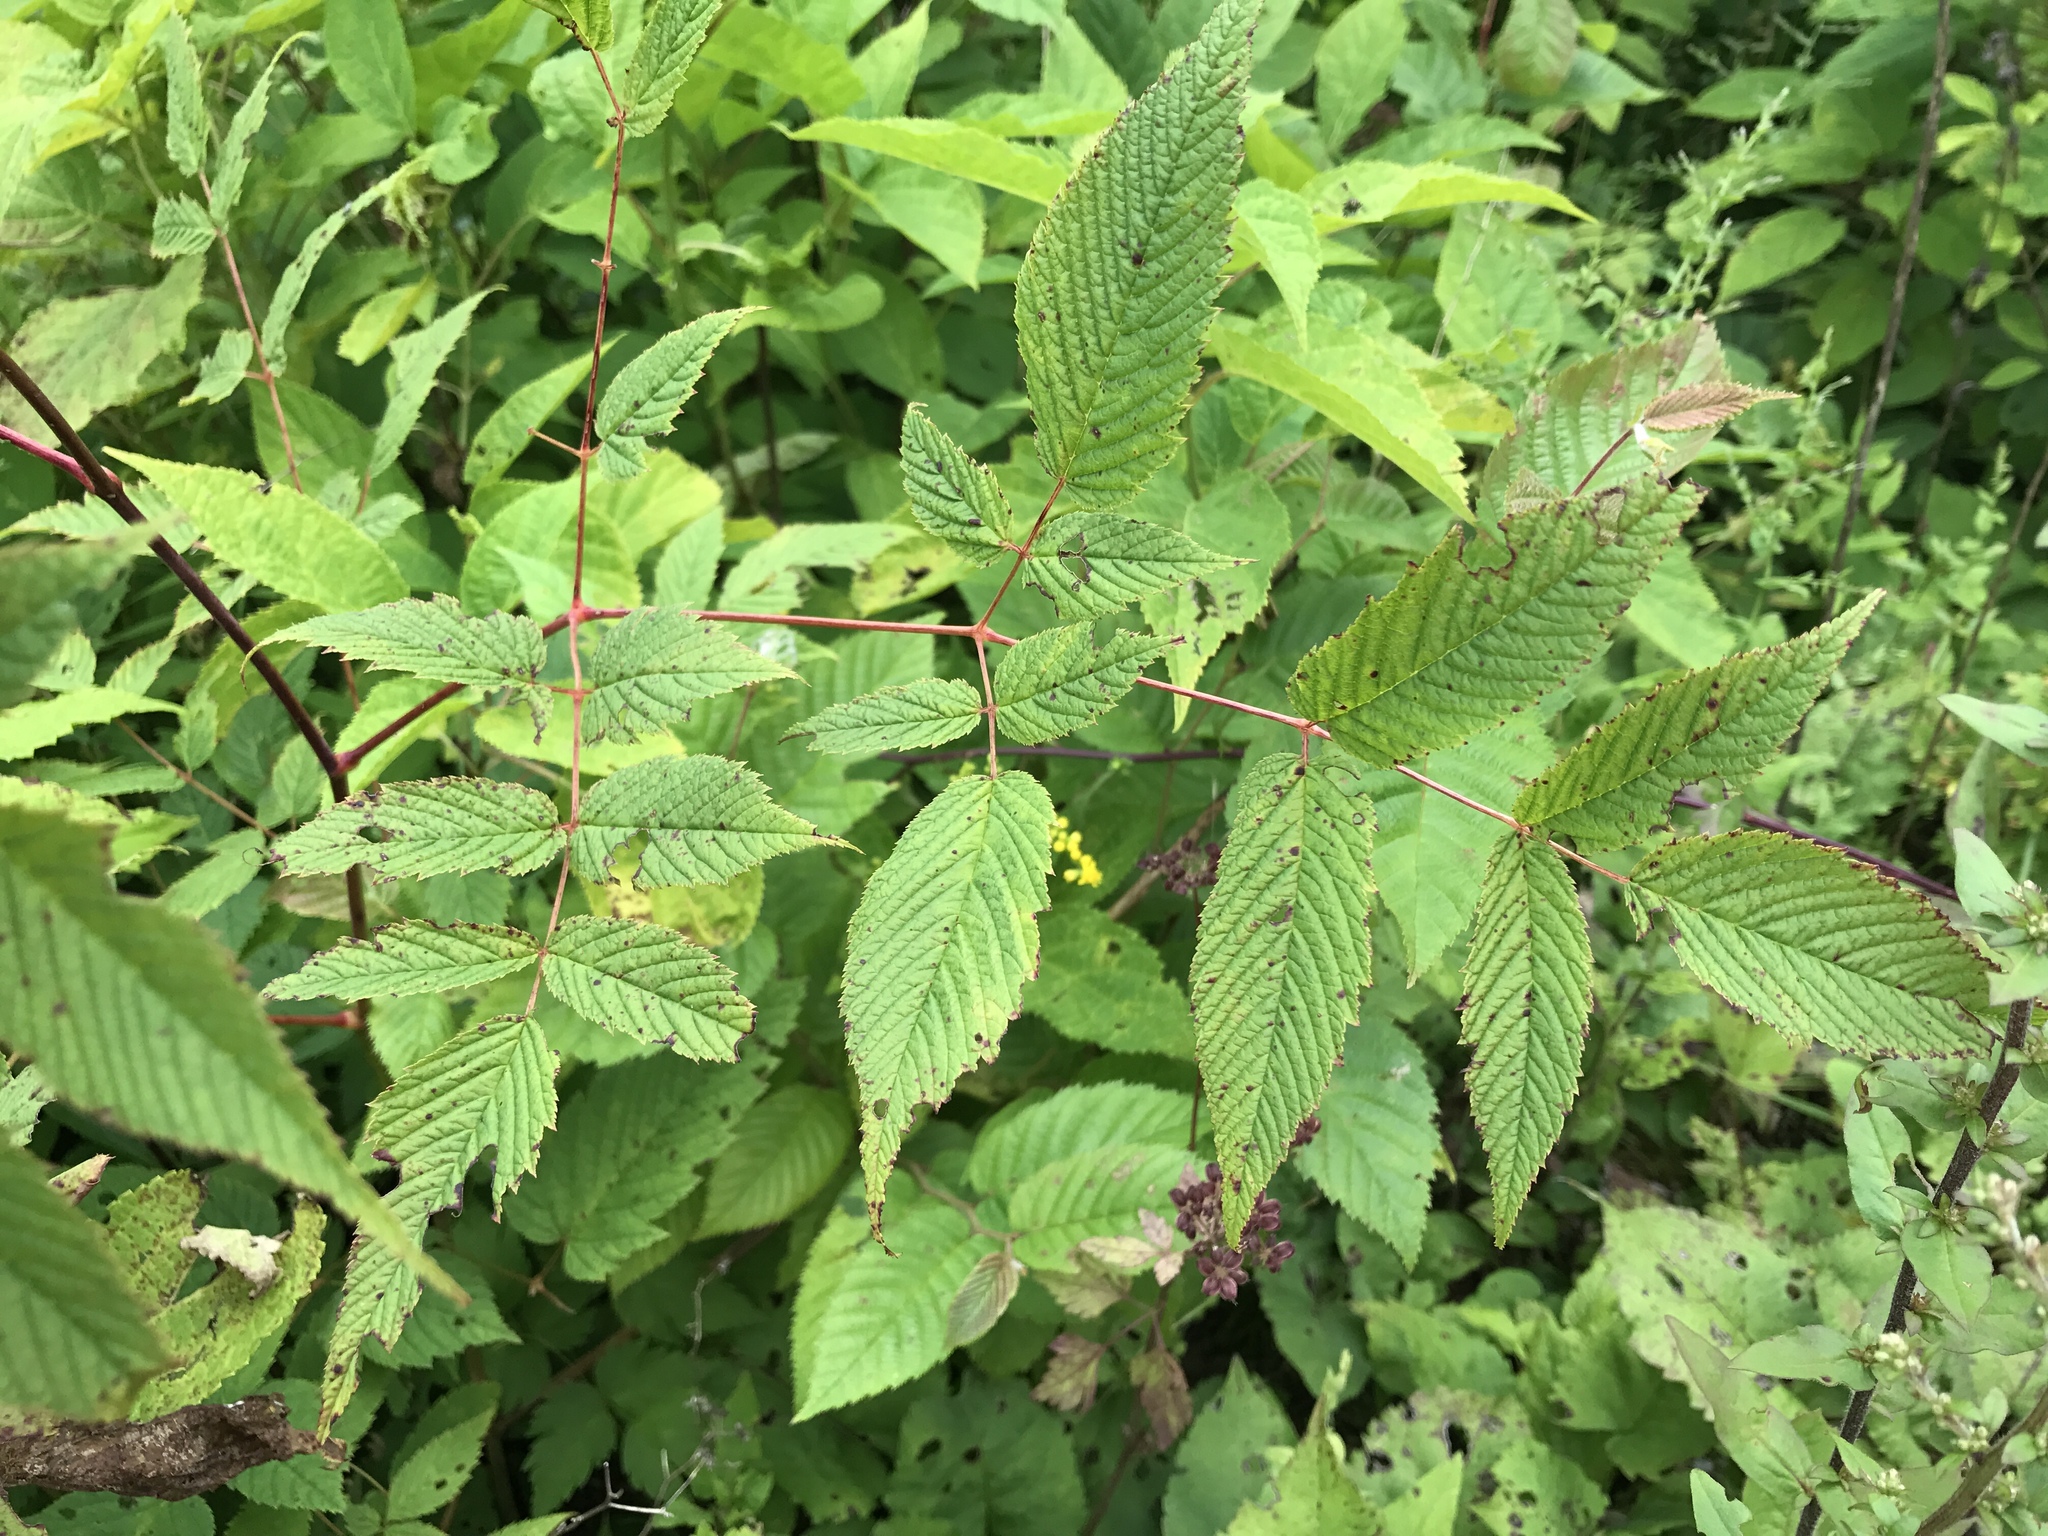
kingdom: Plantae
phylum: Tracheophyta
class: Magnoliopsida
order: Rosales
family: Rosaceae
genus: Aruncus
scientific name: Aruncus dioicus
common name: Buck's-beard
